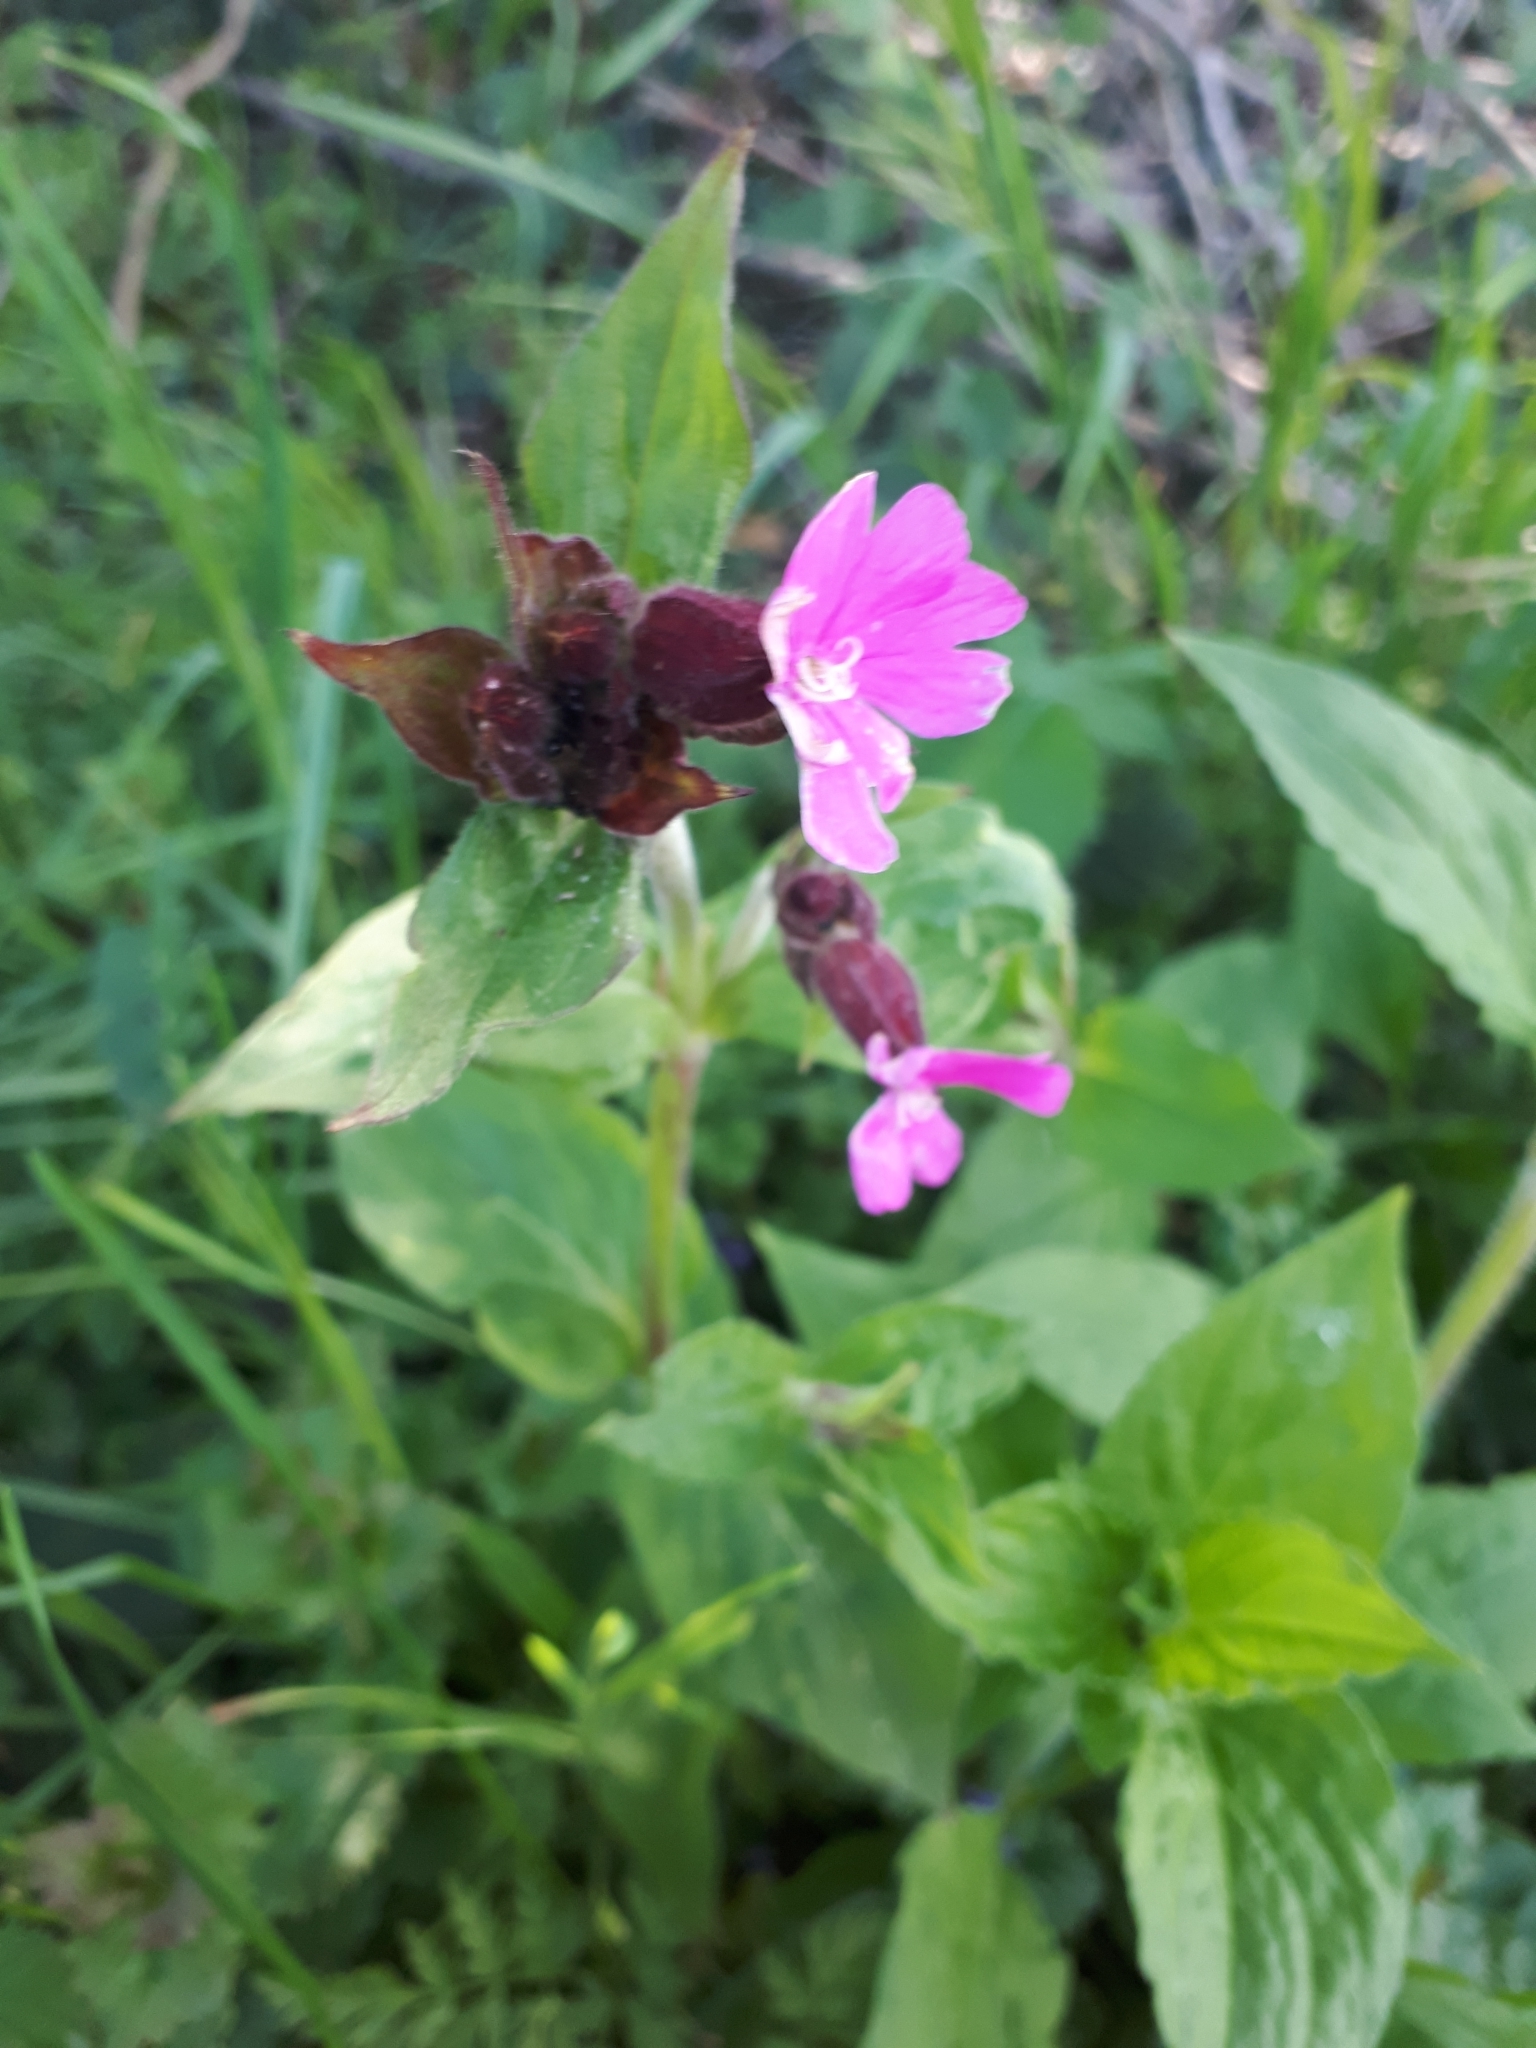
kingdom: Plantae
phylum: Tracheophyta
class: Magnoliopsida
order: Caryophyllales
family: Caryophyllaceae
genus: Silene
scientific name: Silene dioica
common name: Red campion
